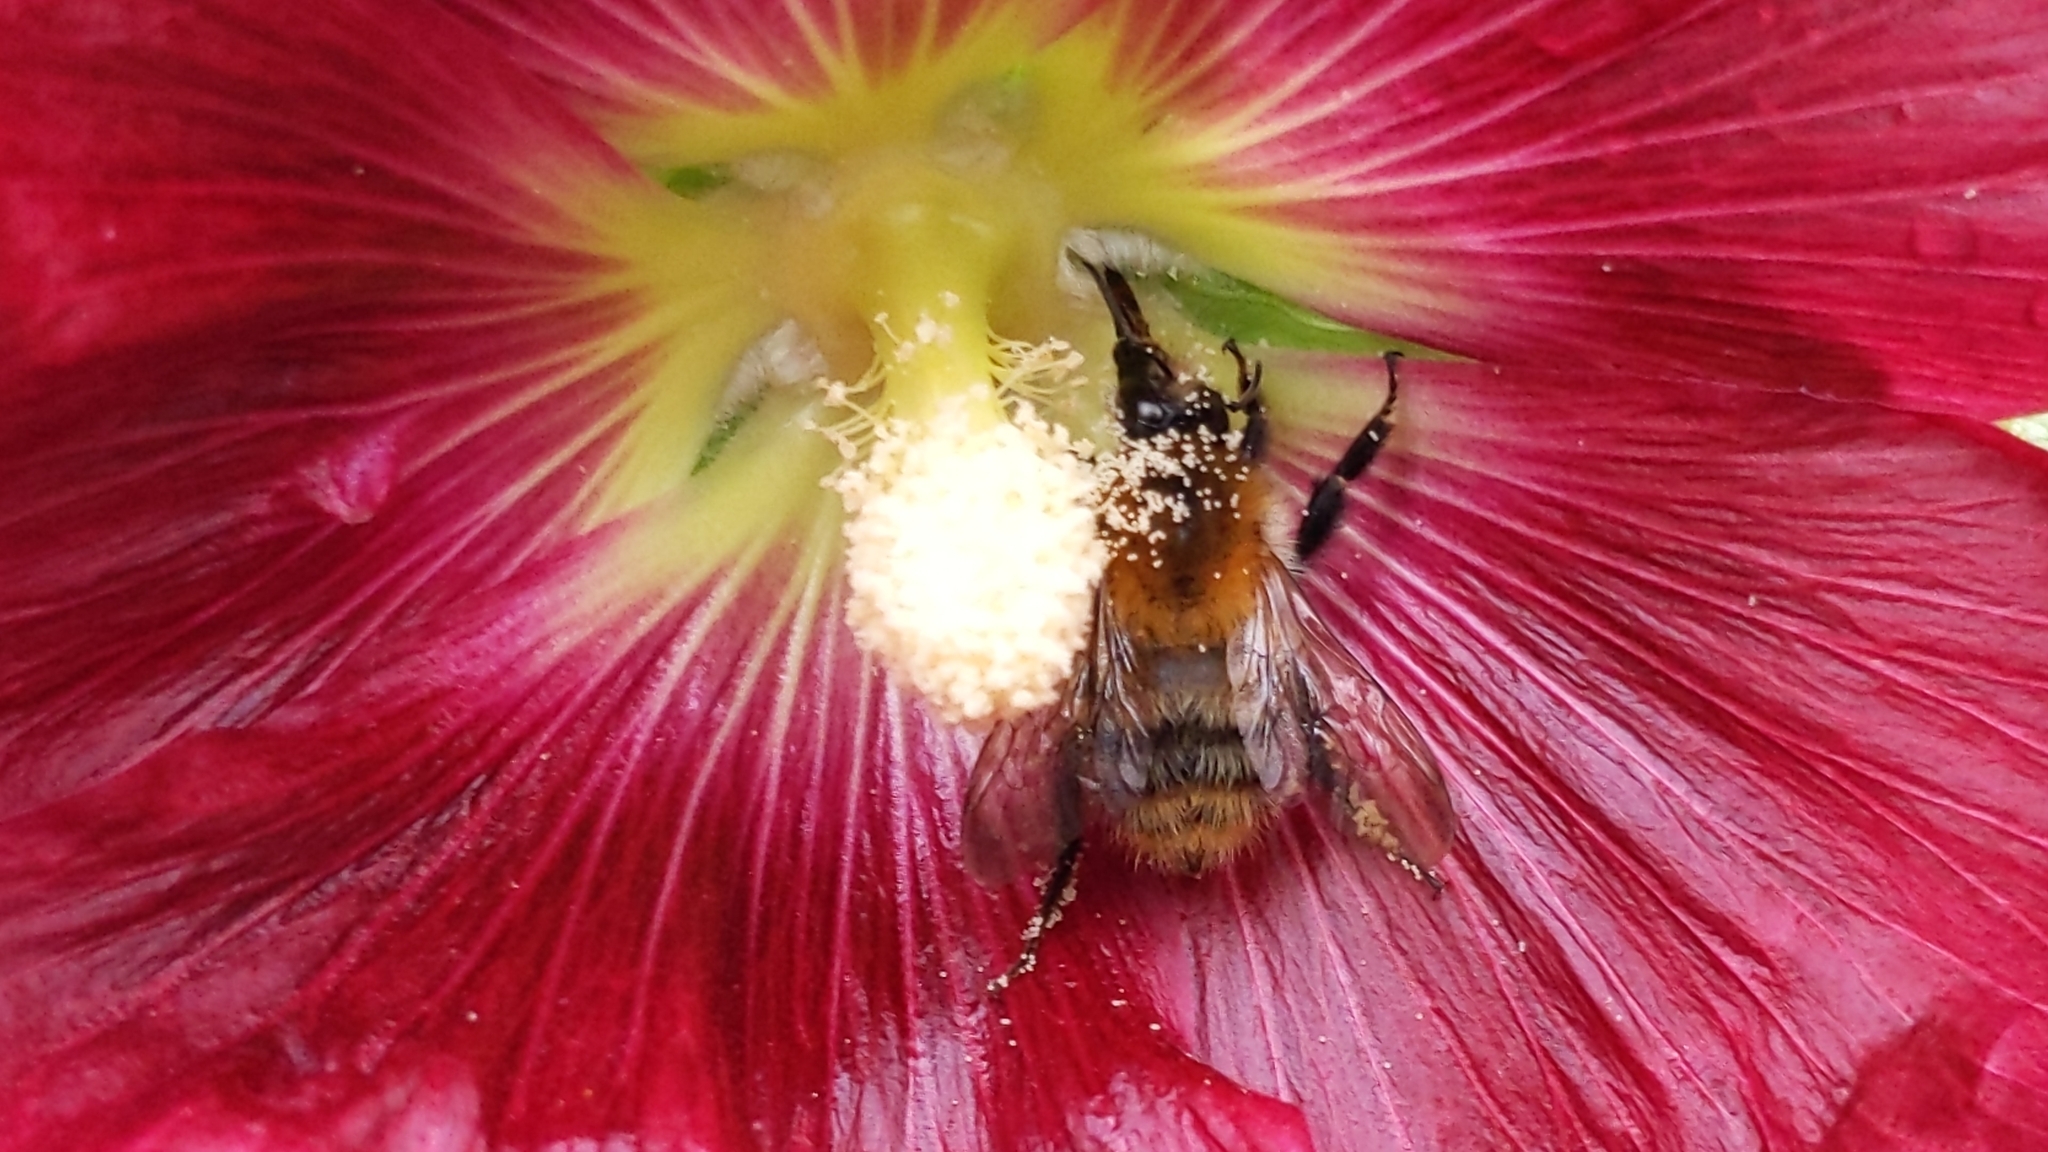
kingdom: Animalia
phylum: Arthropoda
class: Insecta
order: Hymenoptera
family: Apidae
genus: Bombus
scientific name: Bombus pascuorum
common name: Common carder bee
